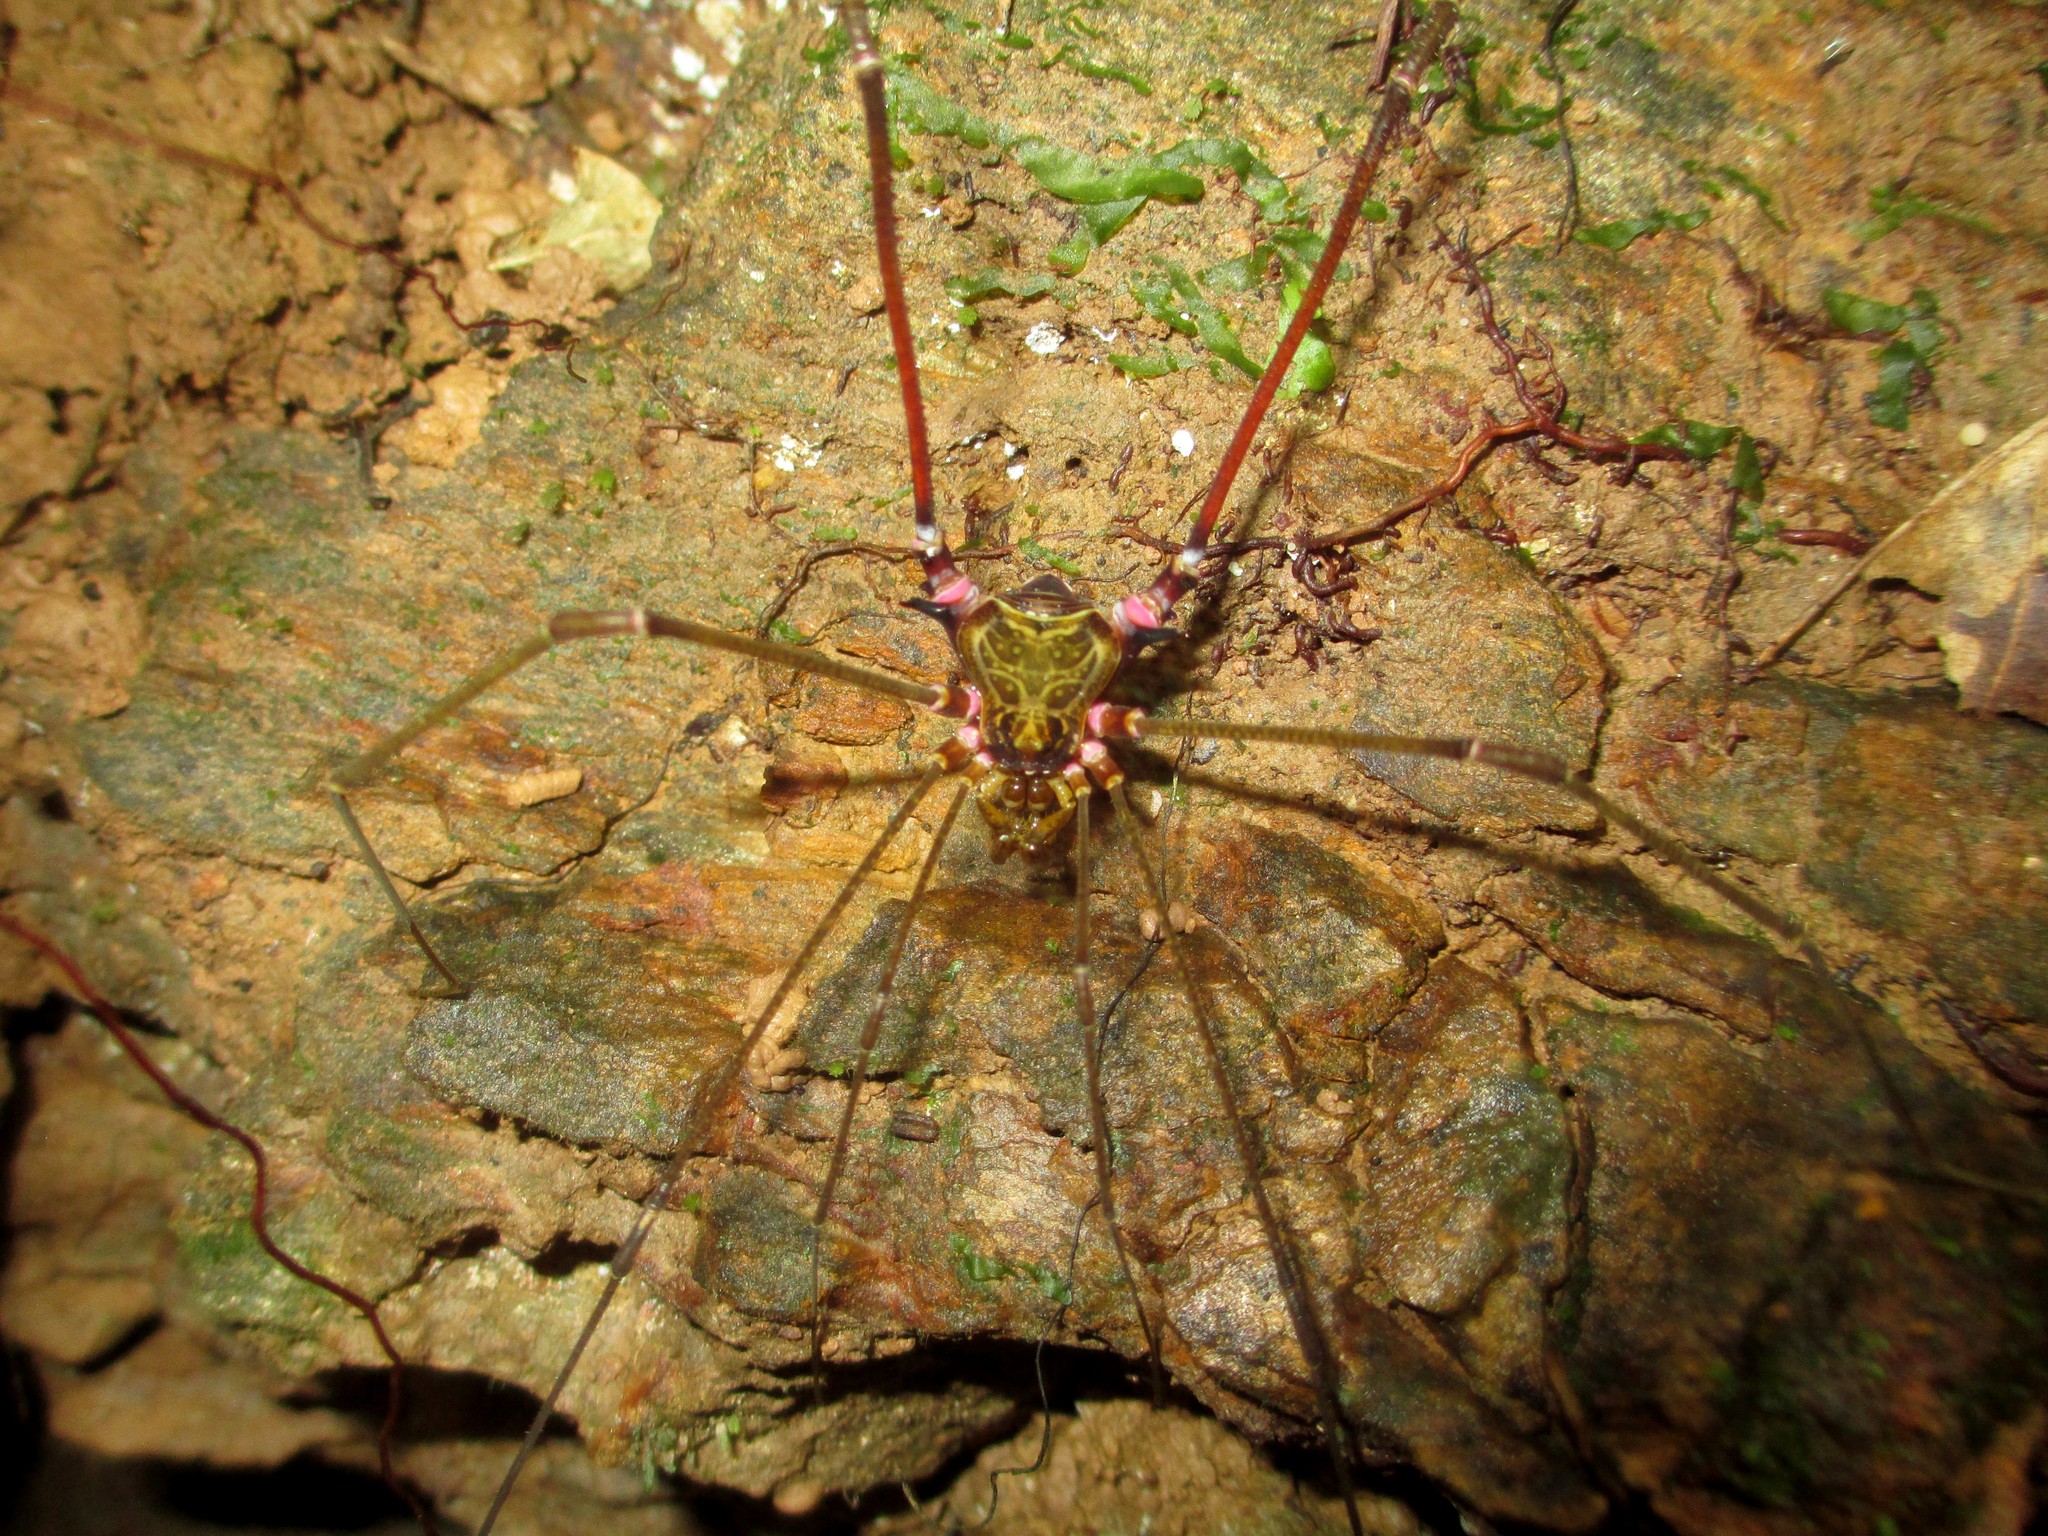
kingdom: Animalia
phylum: Arthropoda
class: Arachnida
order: Opiliones
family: Gonyleptidae
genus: Serracutisoma
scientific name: Serracutisoma inerme
